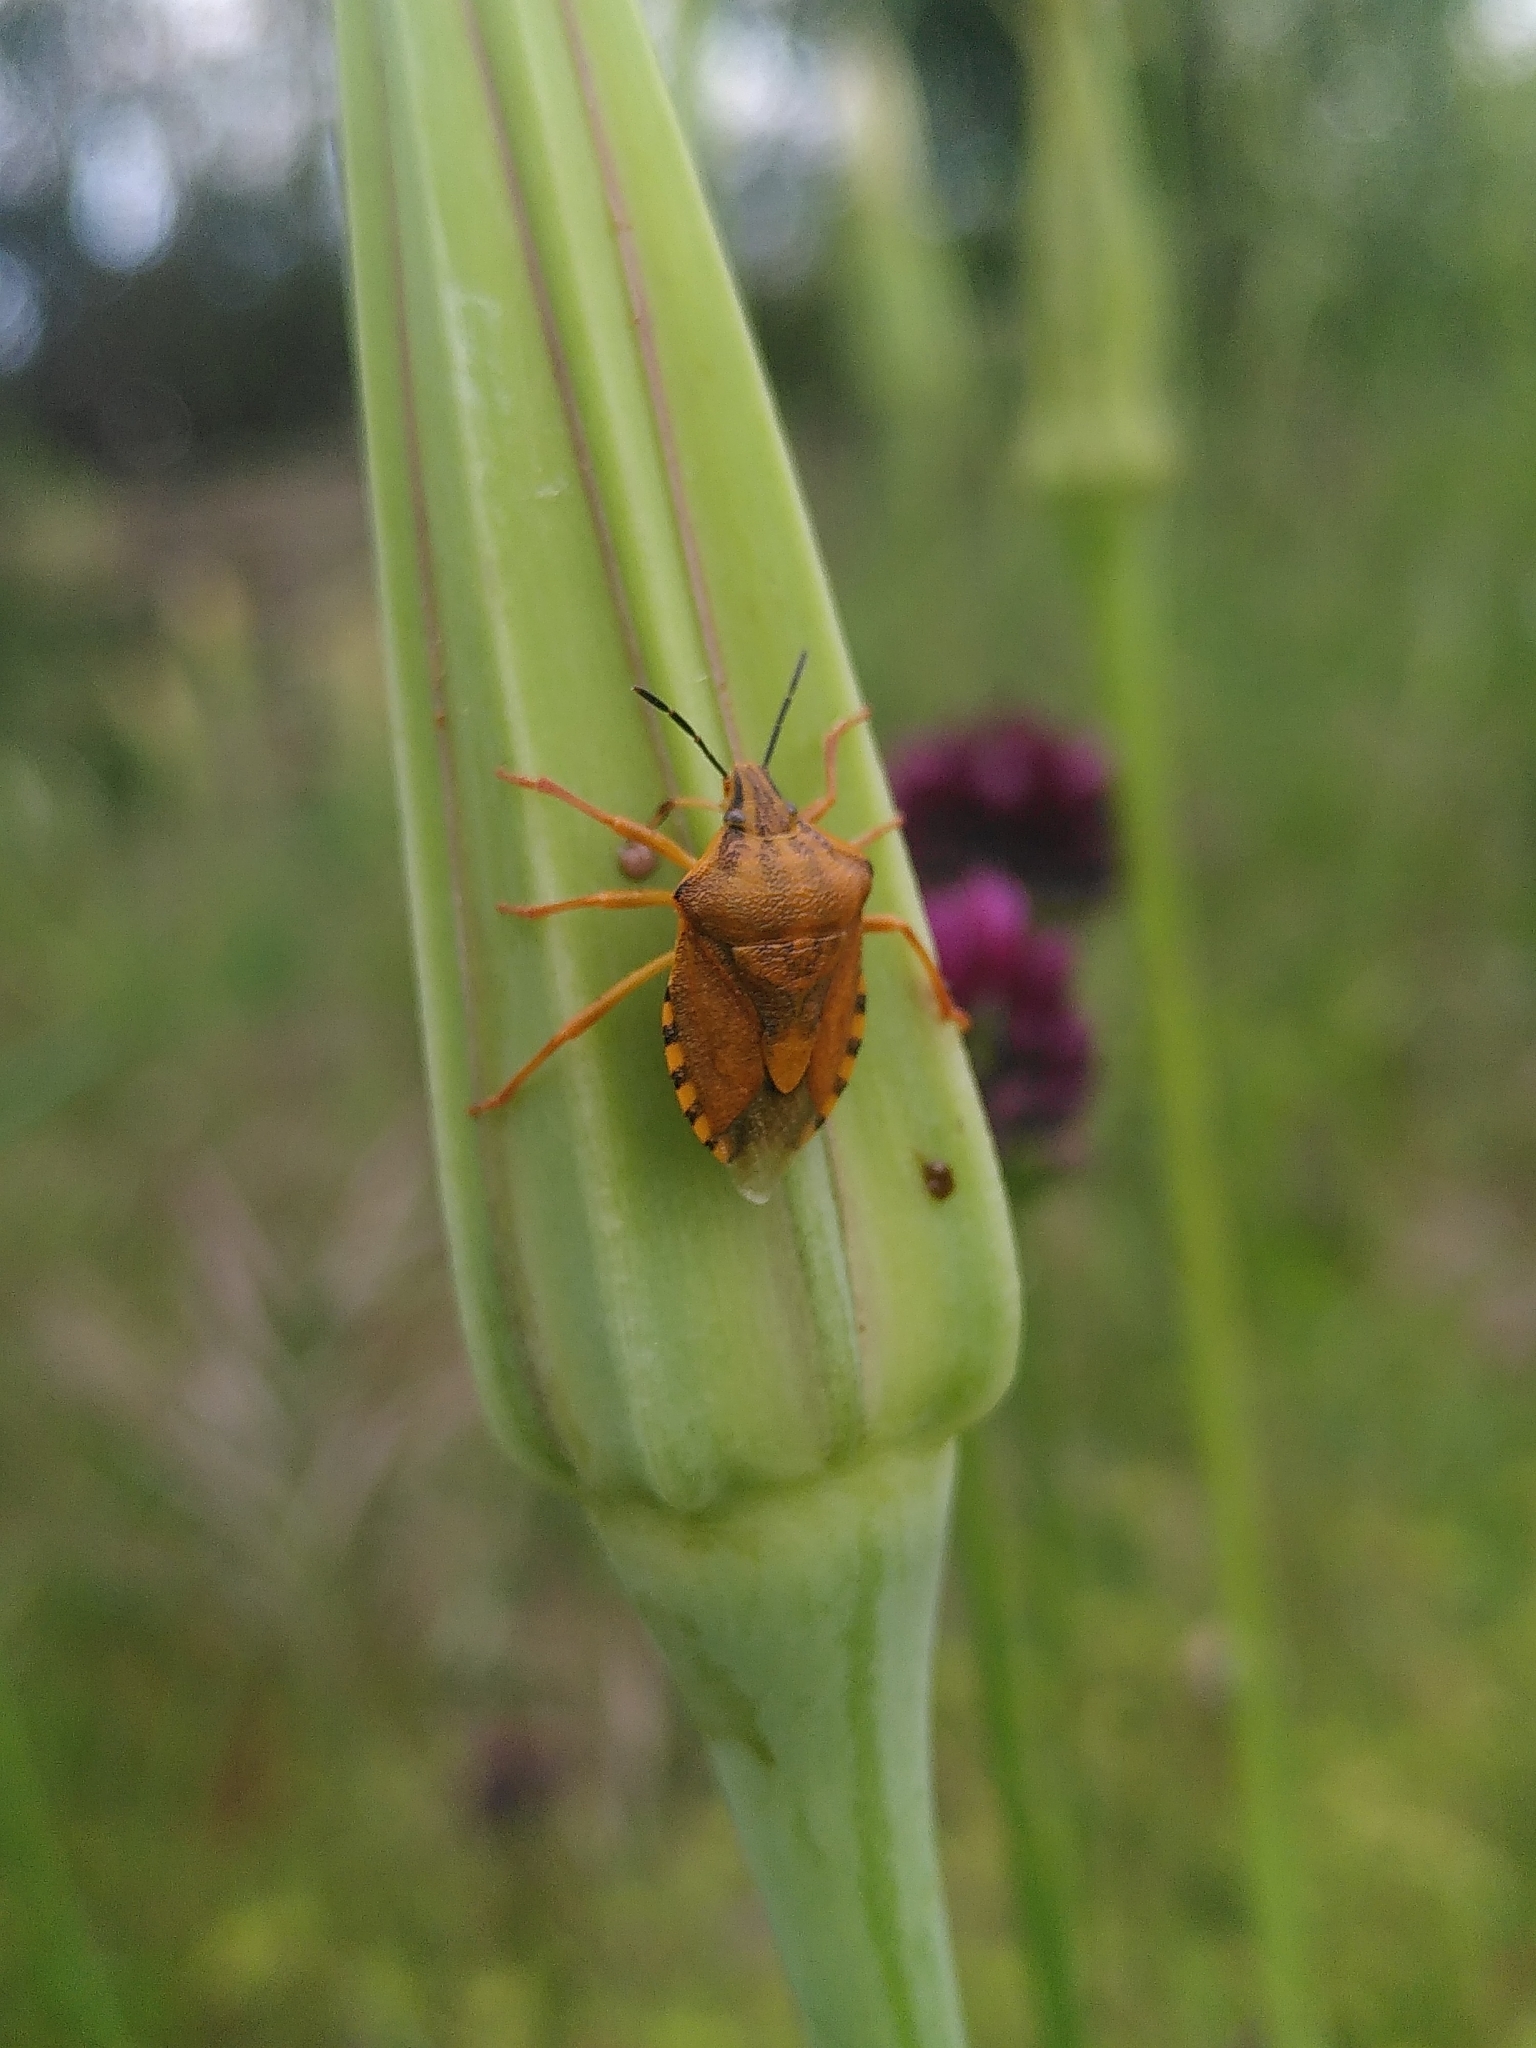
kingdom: Animalia
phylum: Arthropoda
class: Insecta
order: Hemiptera
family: Pentatomidae
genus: Carpocoris
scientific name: Carpocoris purpureipennis
